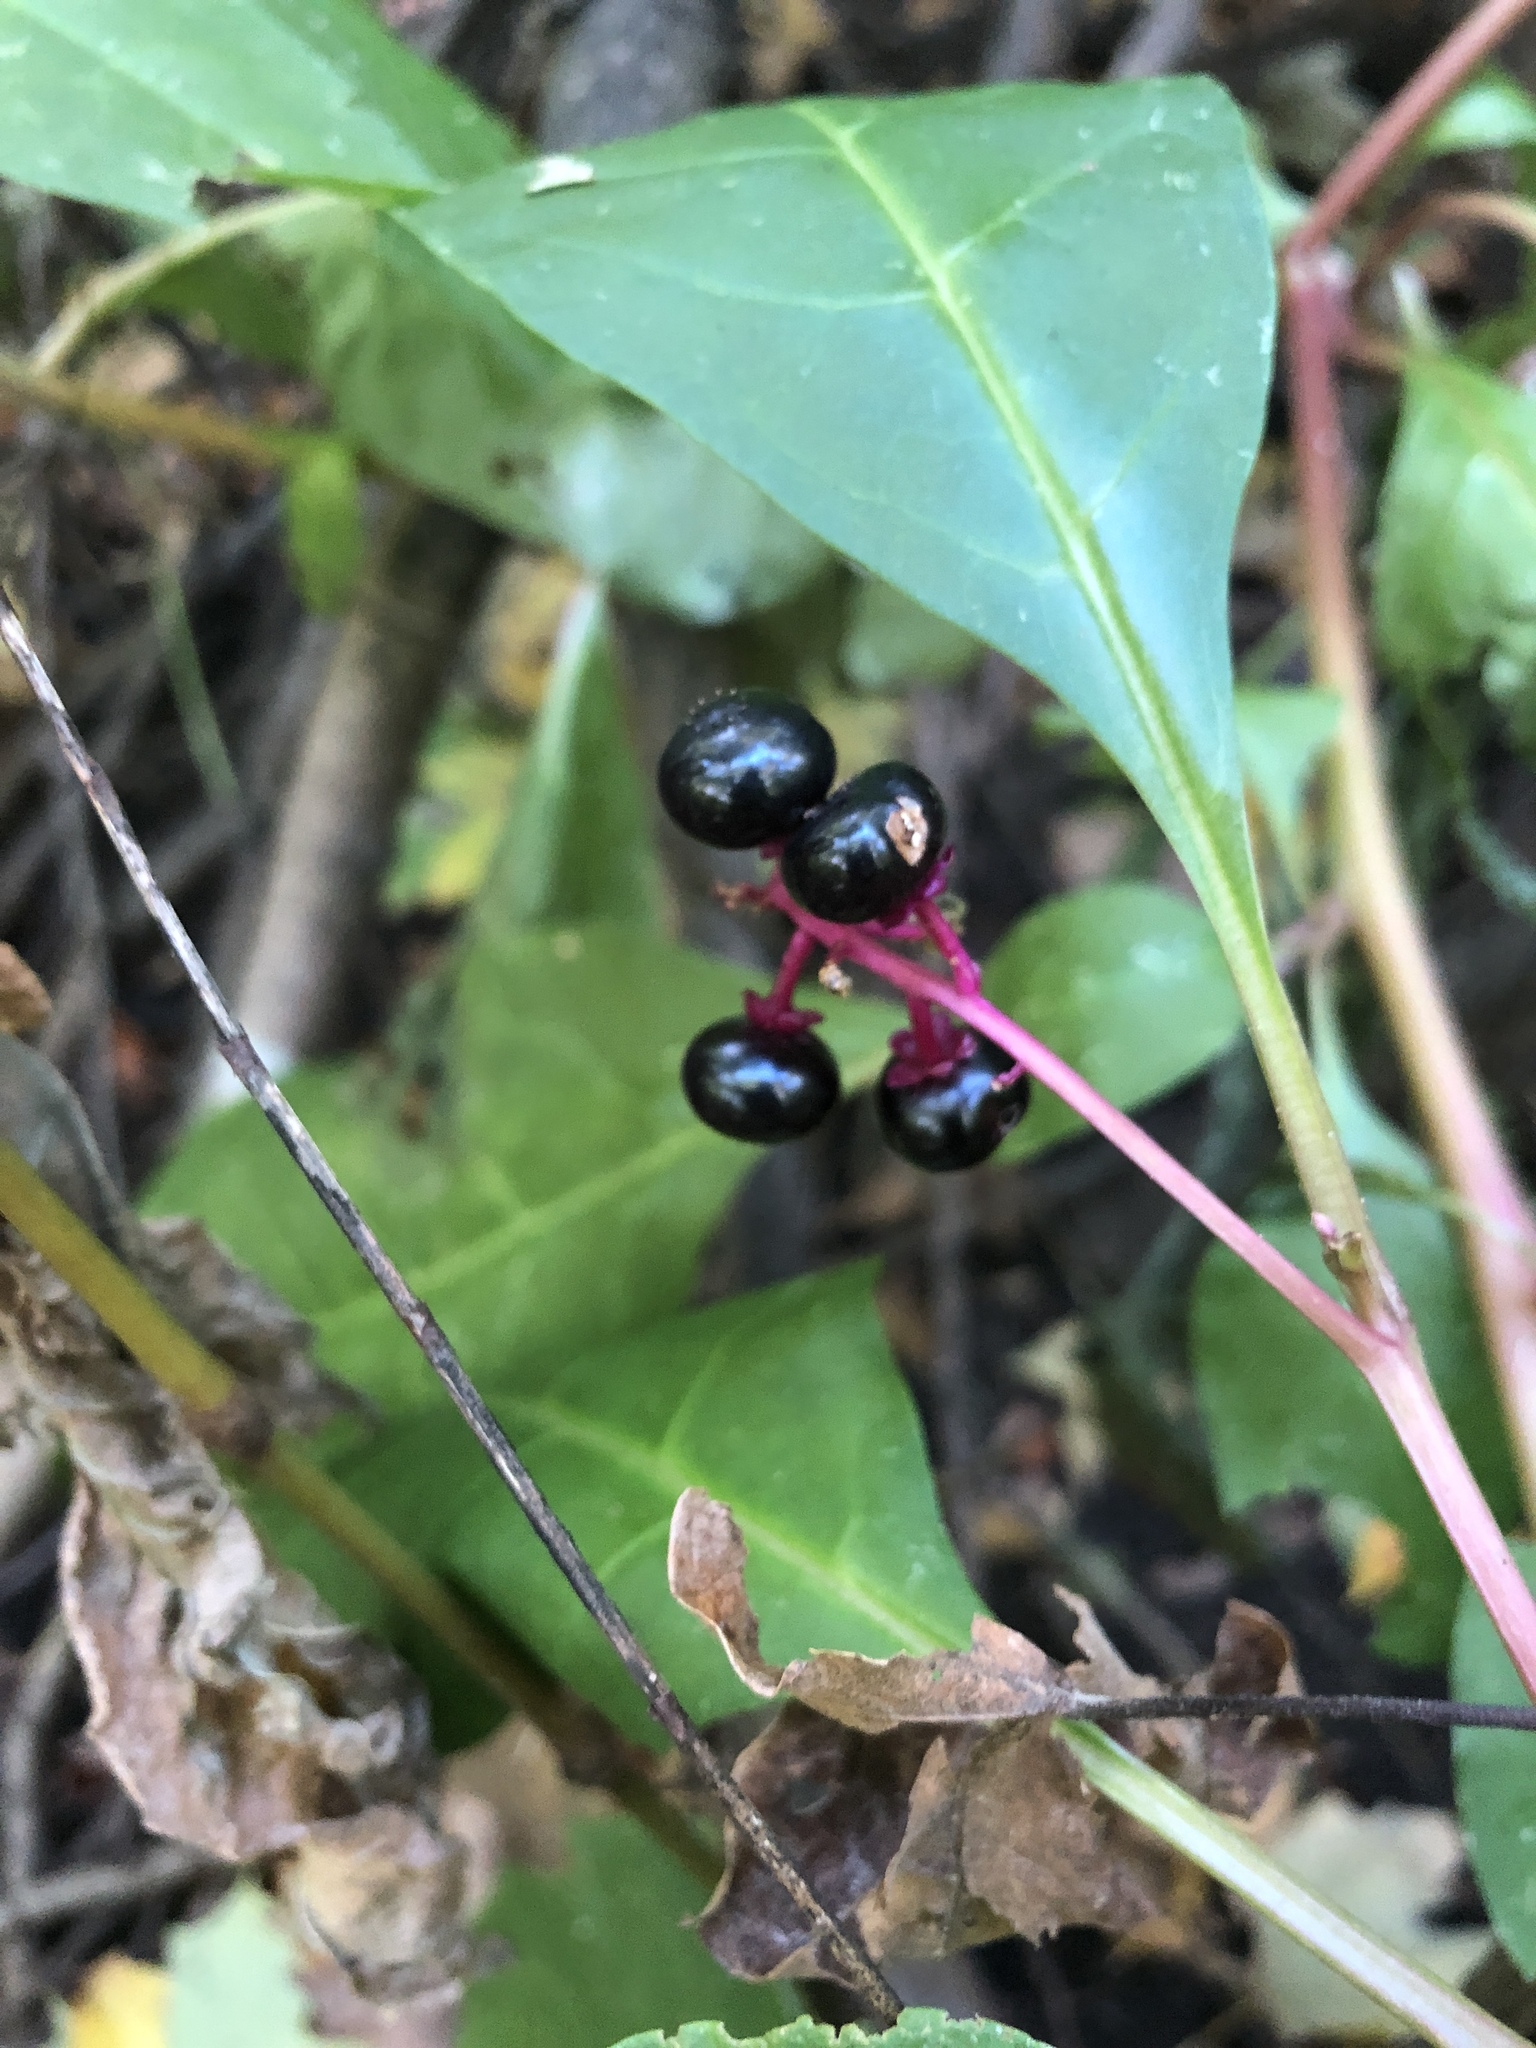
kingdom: Plantae
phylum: Tracheophyta
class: Magnoliopsida
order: Caryophyllales
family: Phytolaccaceae
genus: Phytolacca
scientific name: Phytolacca americana
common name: American pokeweed
